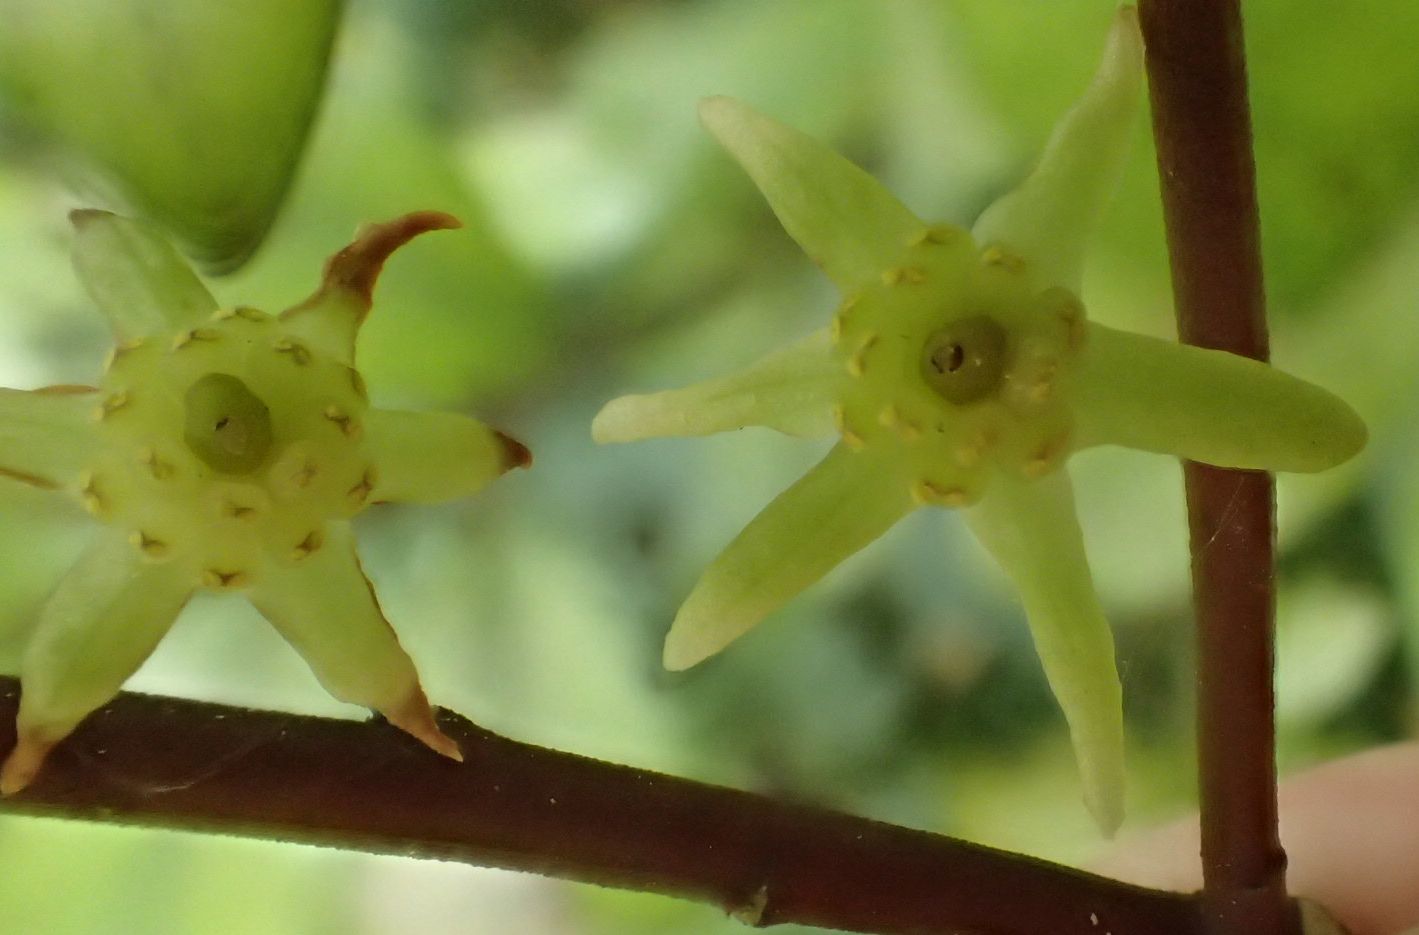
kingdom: Plantae
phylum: Tracheophyta
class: Magnoliopsida
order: Canellales
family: Winteraceae
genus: Pseudowintera
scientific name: Pseudowintera colorata
